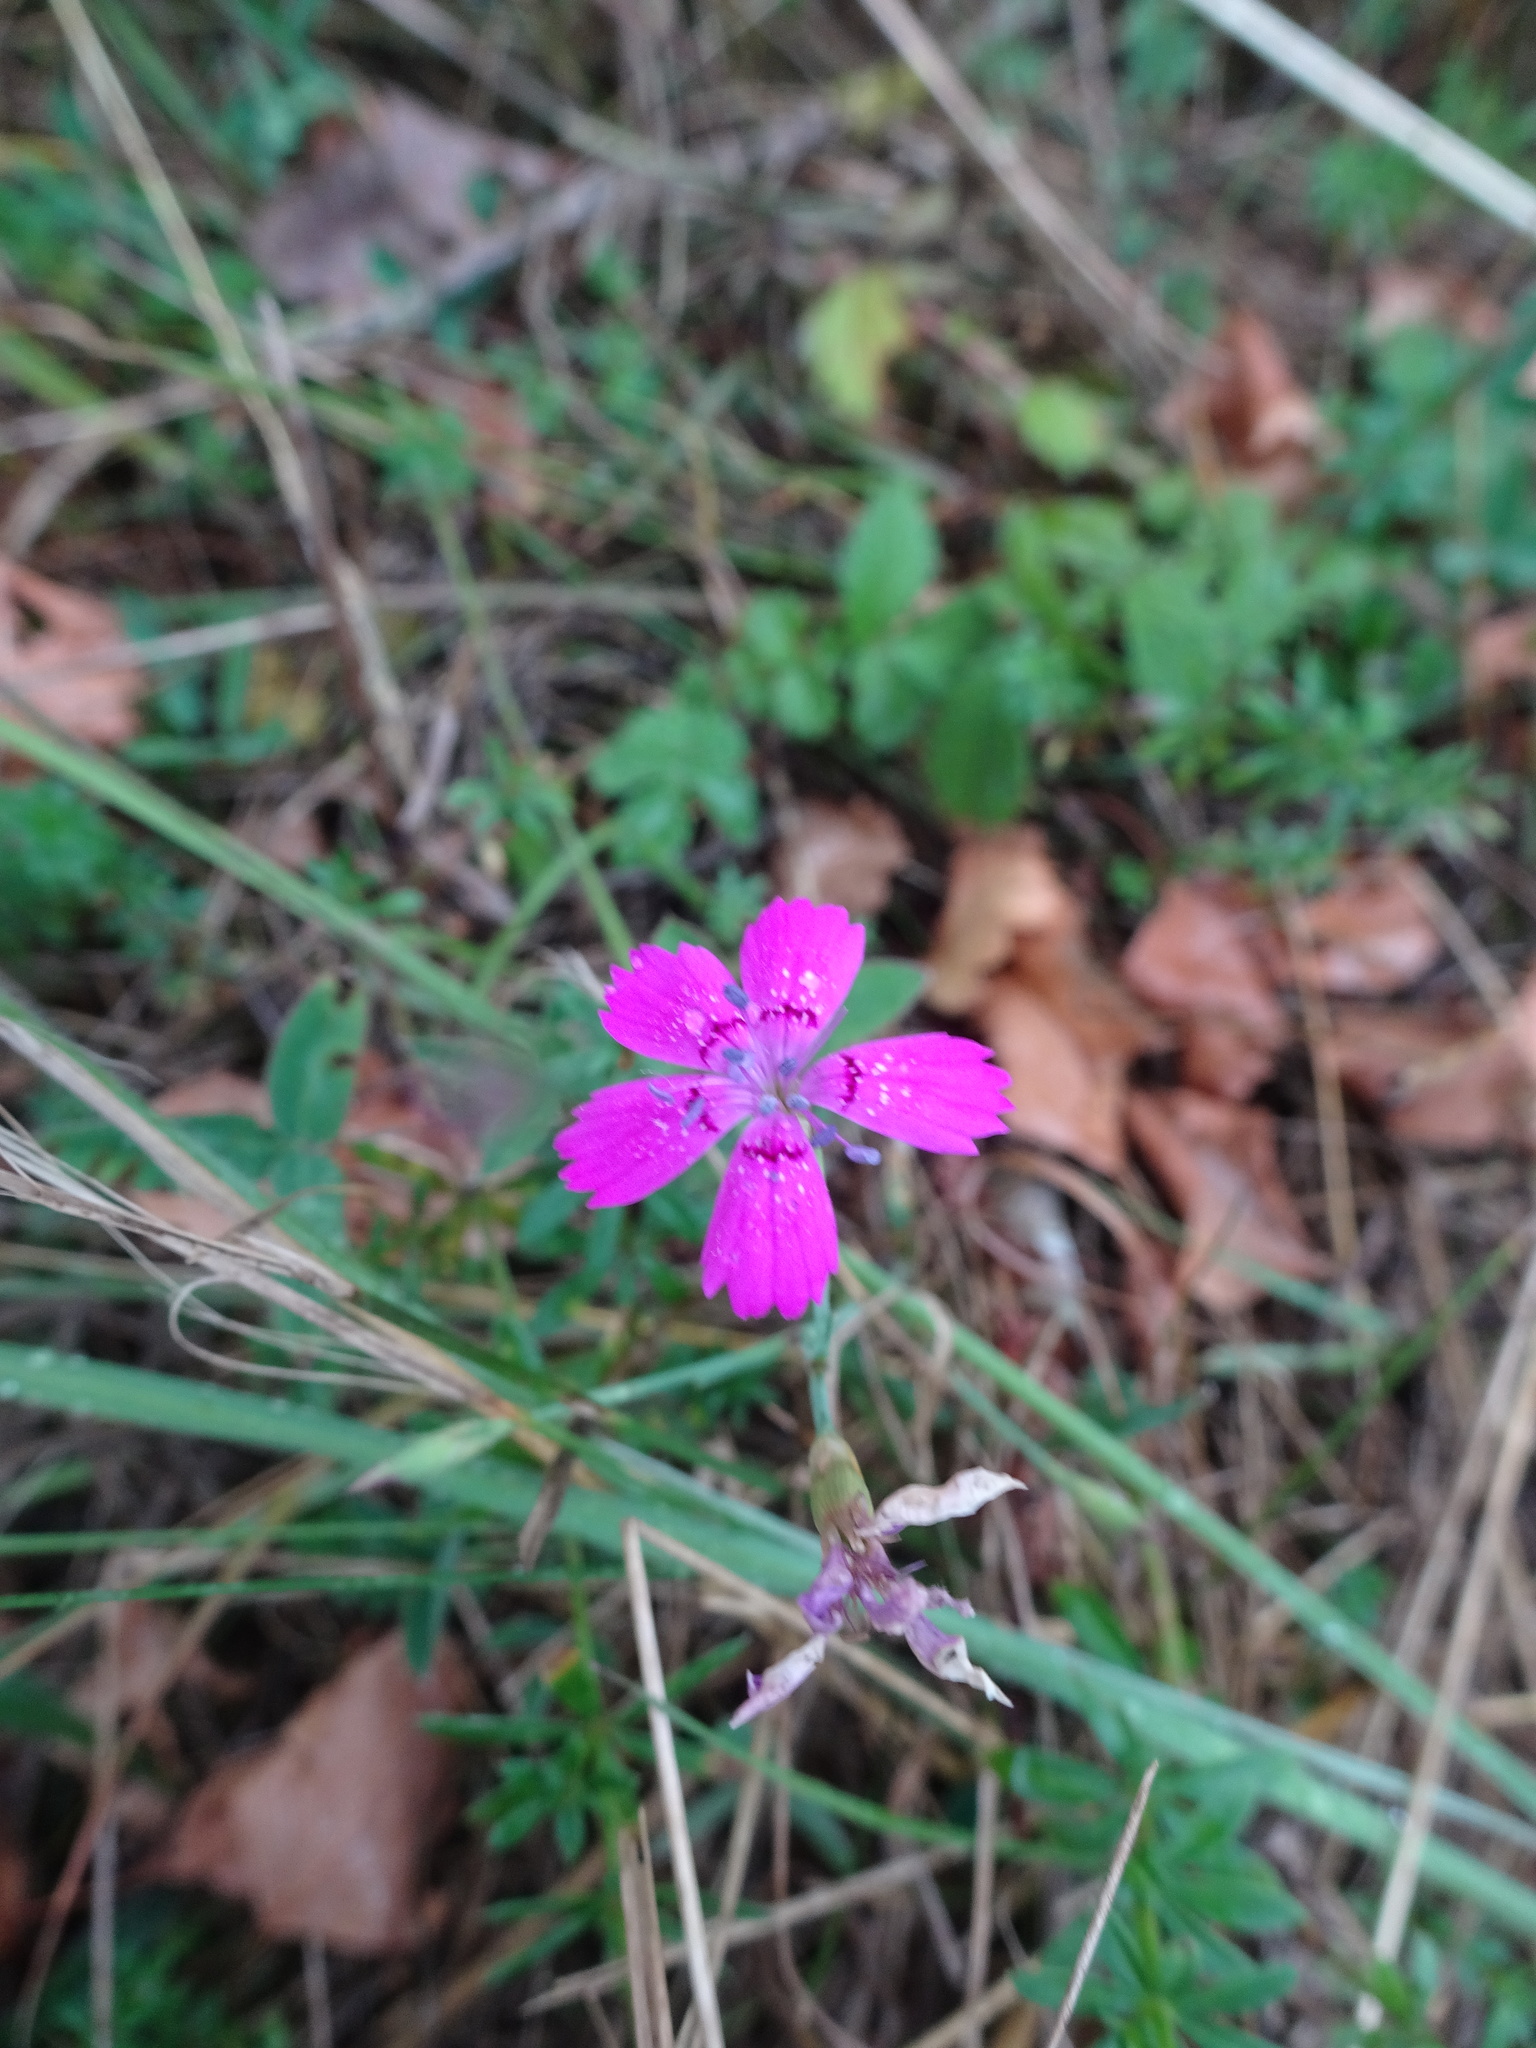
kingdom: Plantae
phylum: Tracheophyta
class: Magnoliopsida
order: Caryophyllales
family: Caryophyllaceae
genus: Dianthus
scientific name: Dianthus deltoides
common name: Maiden pink
